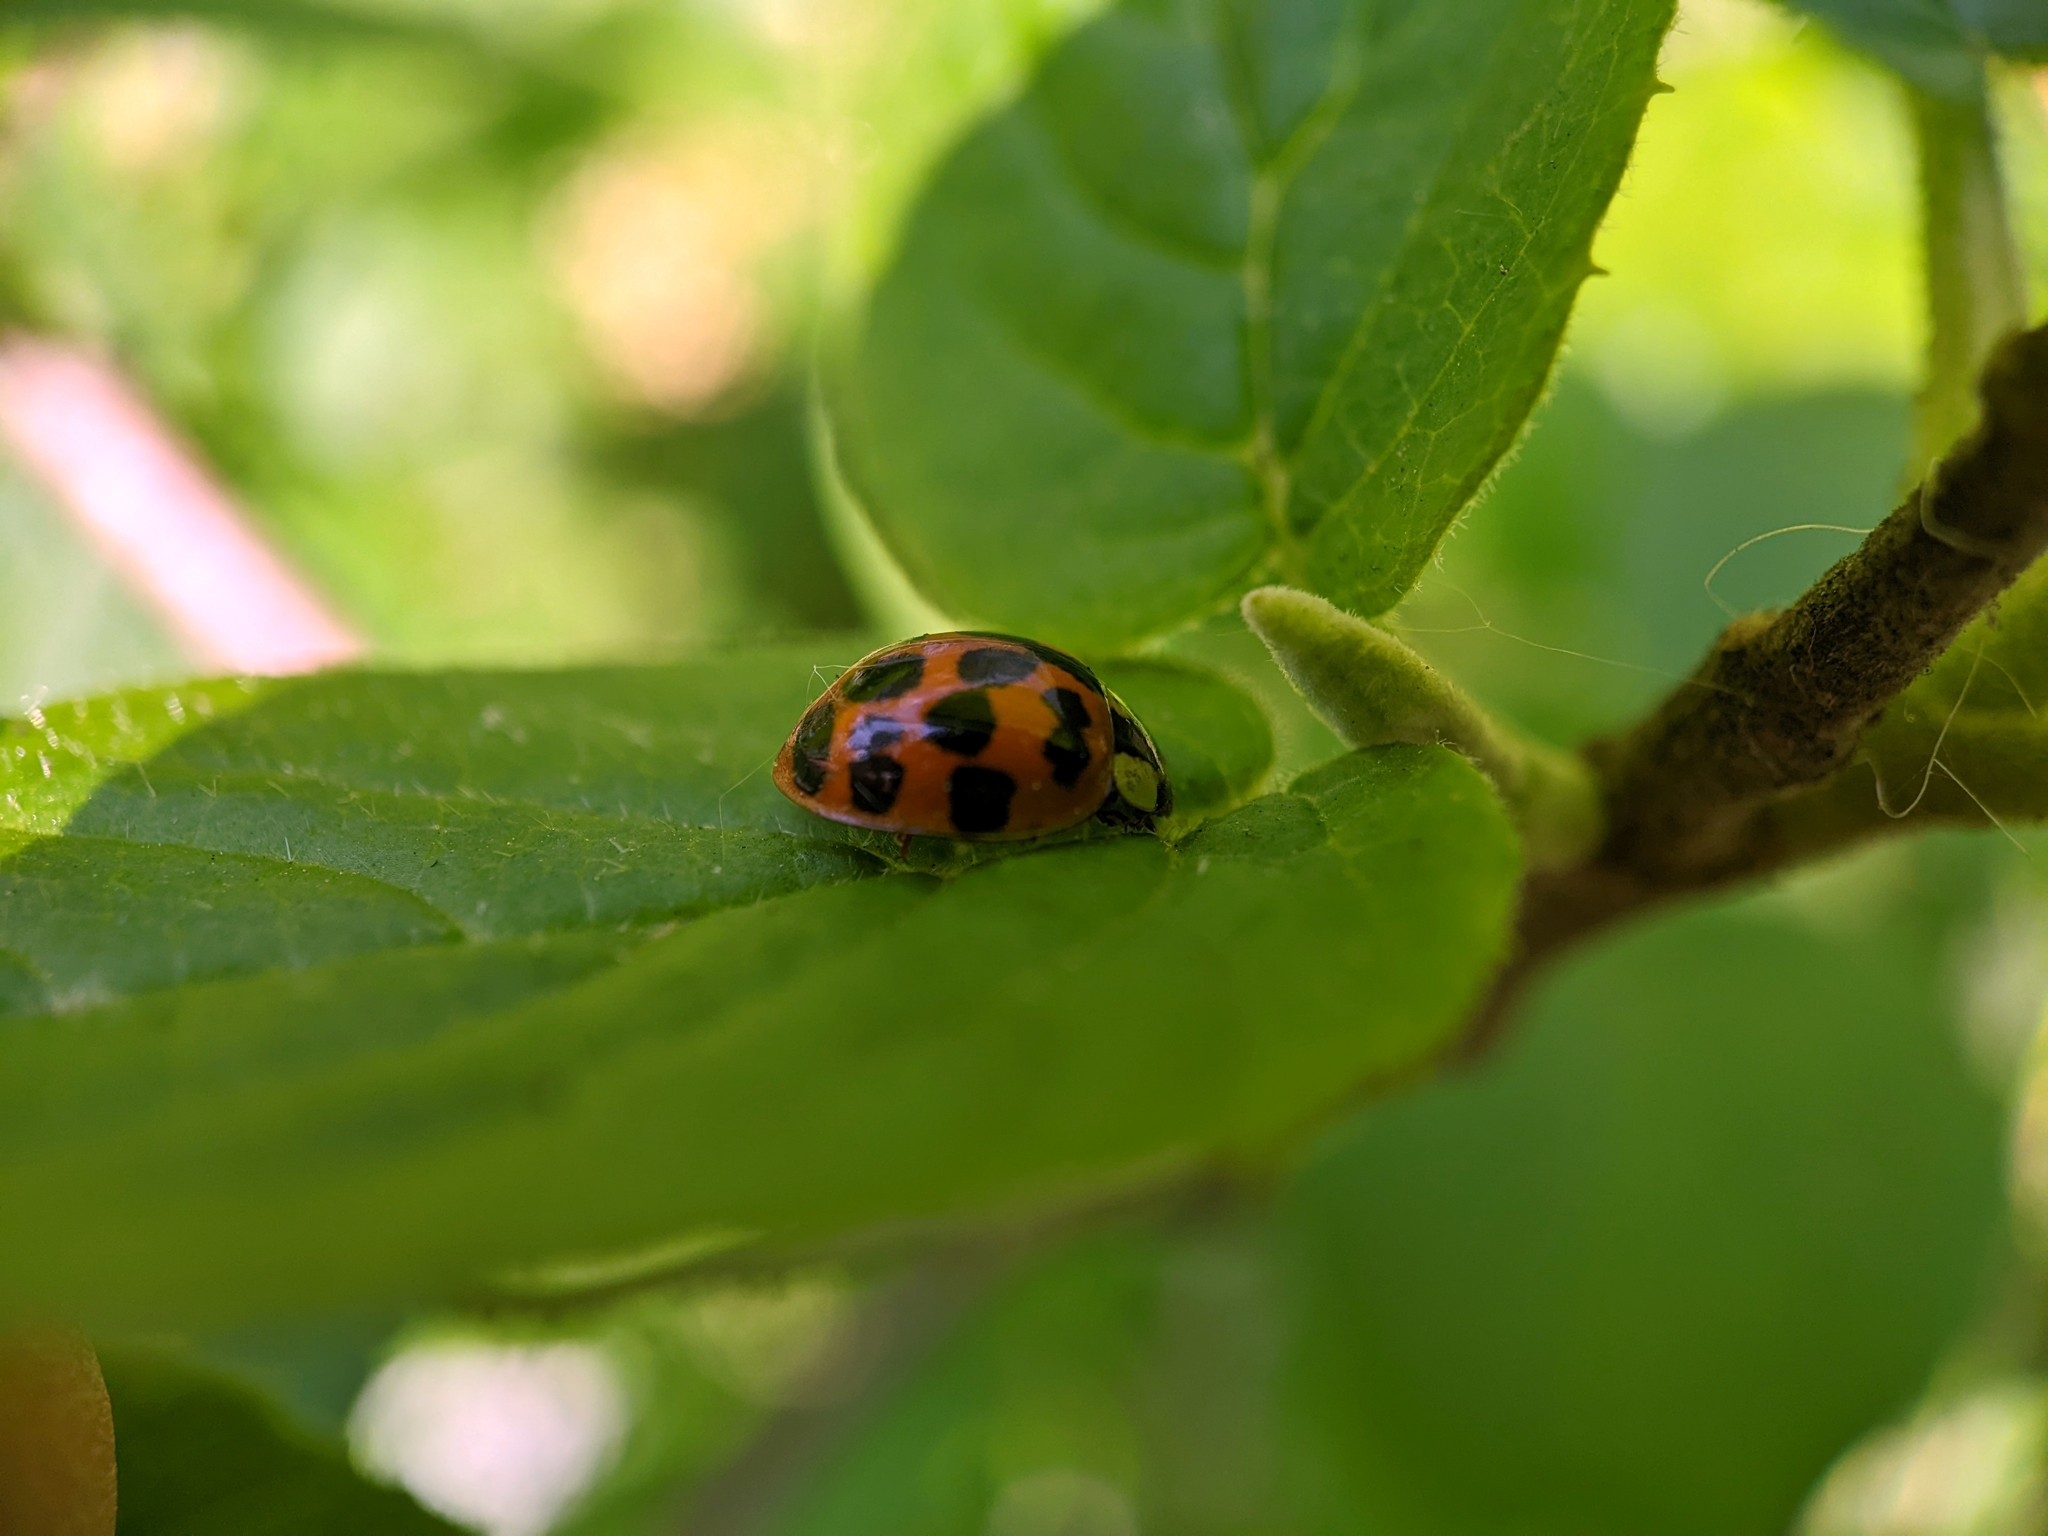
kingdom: Animalia
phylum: Arthropoda
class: Insecta
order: Coleoptera
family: Coccinellidae
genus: Harmonia
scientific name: Harmonia axyridis
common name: Harlequin ladybird
